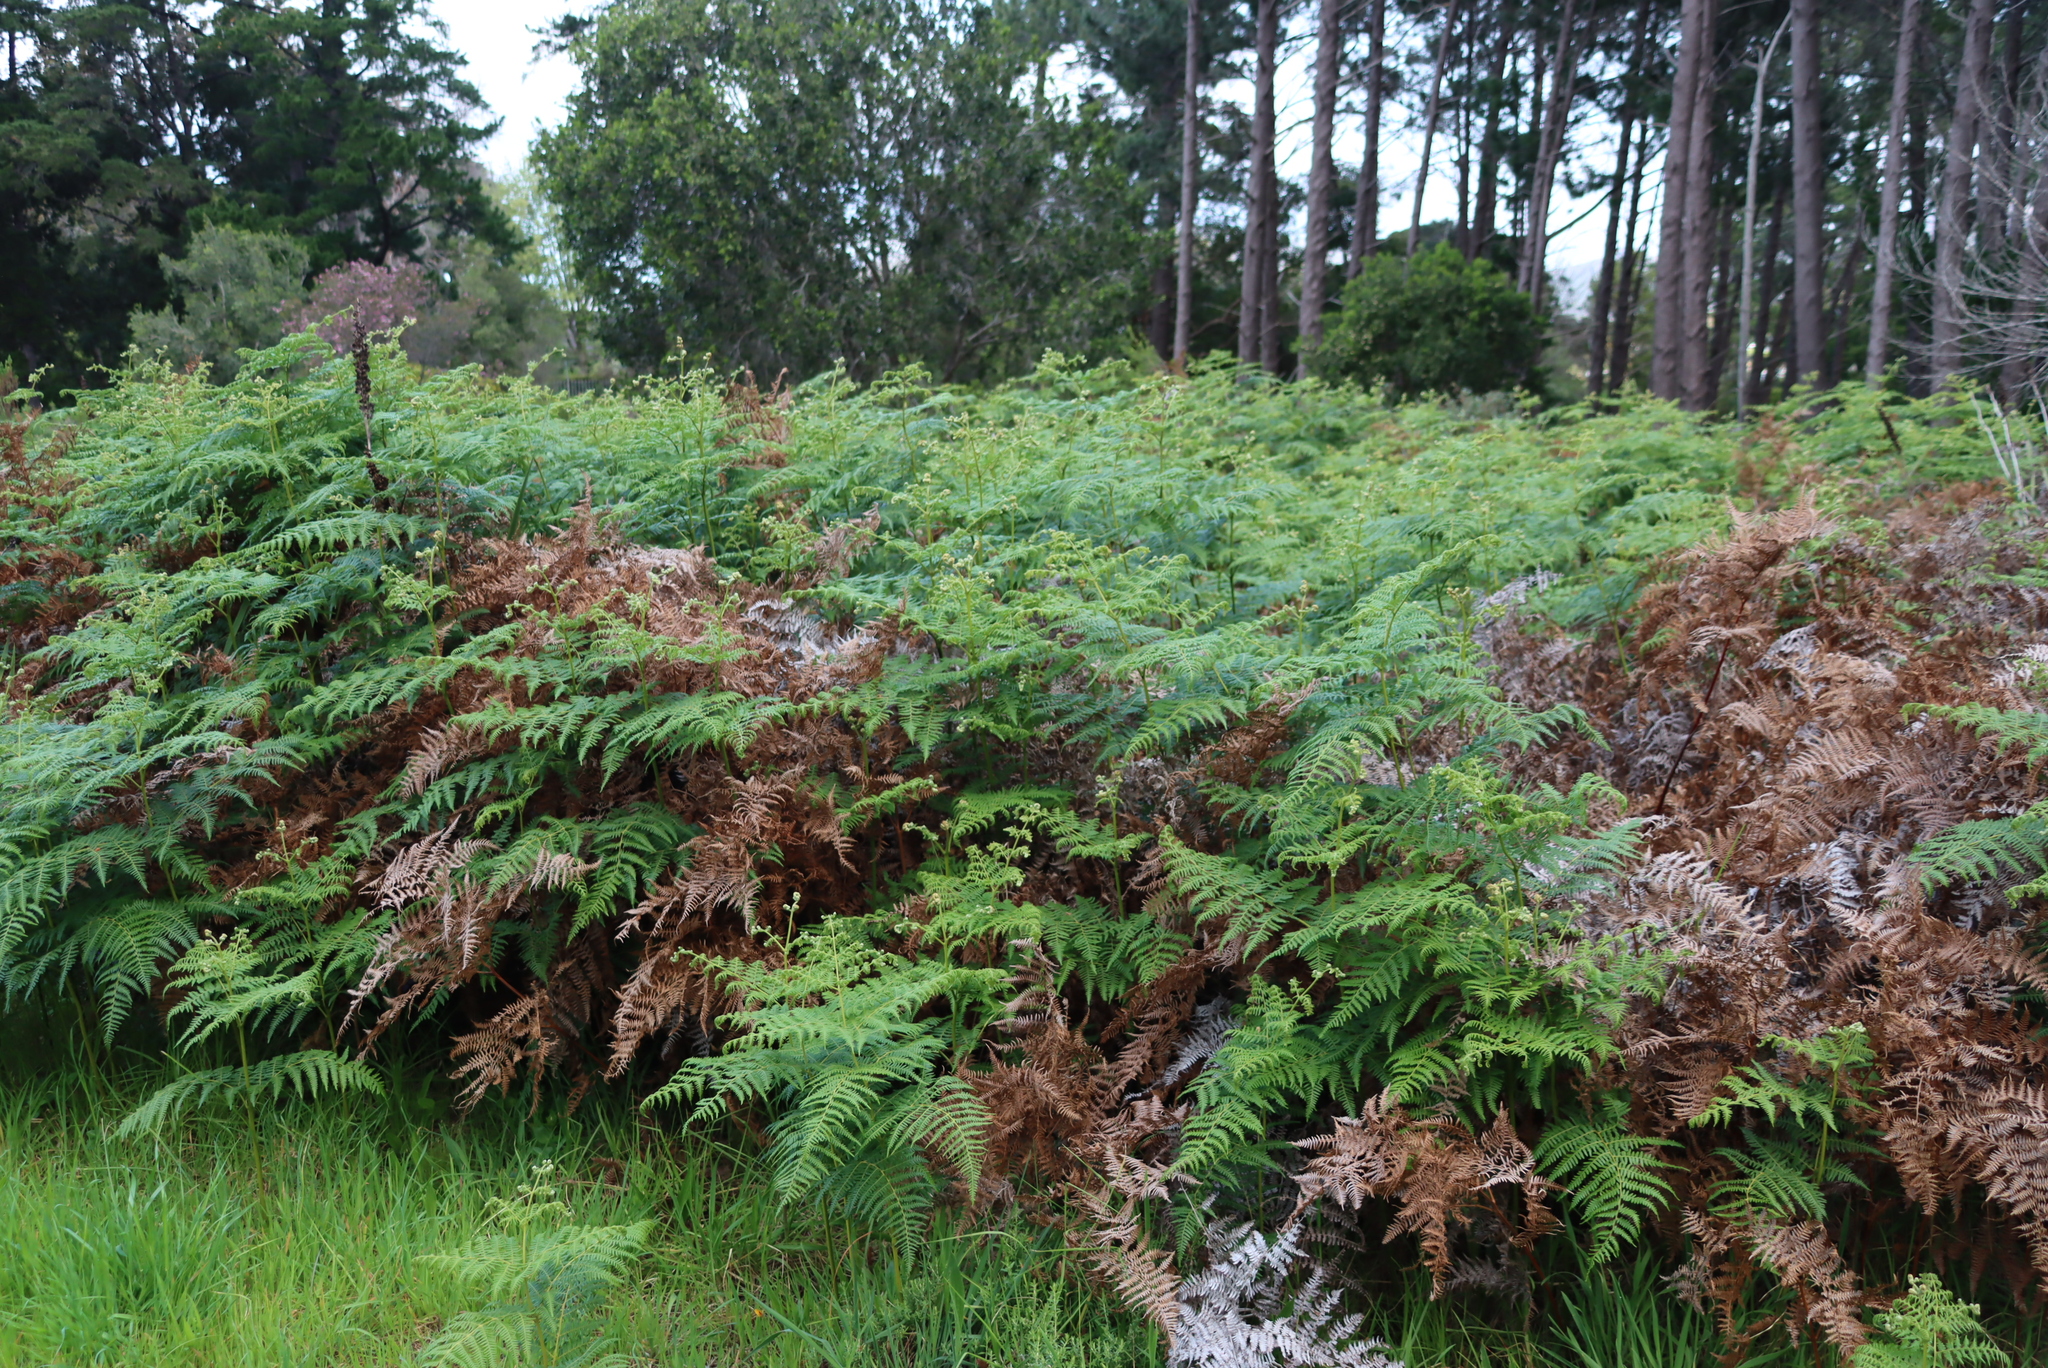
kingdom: Plantae
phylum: Tracheophyta
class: Polypodiopsida
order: Polypodiales
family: Dennstaedtiaceae
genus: Pteridium
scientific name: Pteridium aquilinum
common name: Bracken
